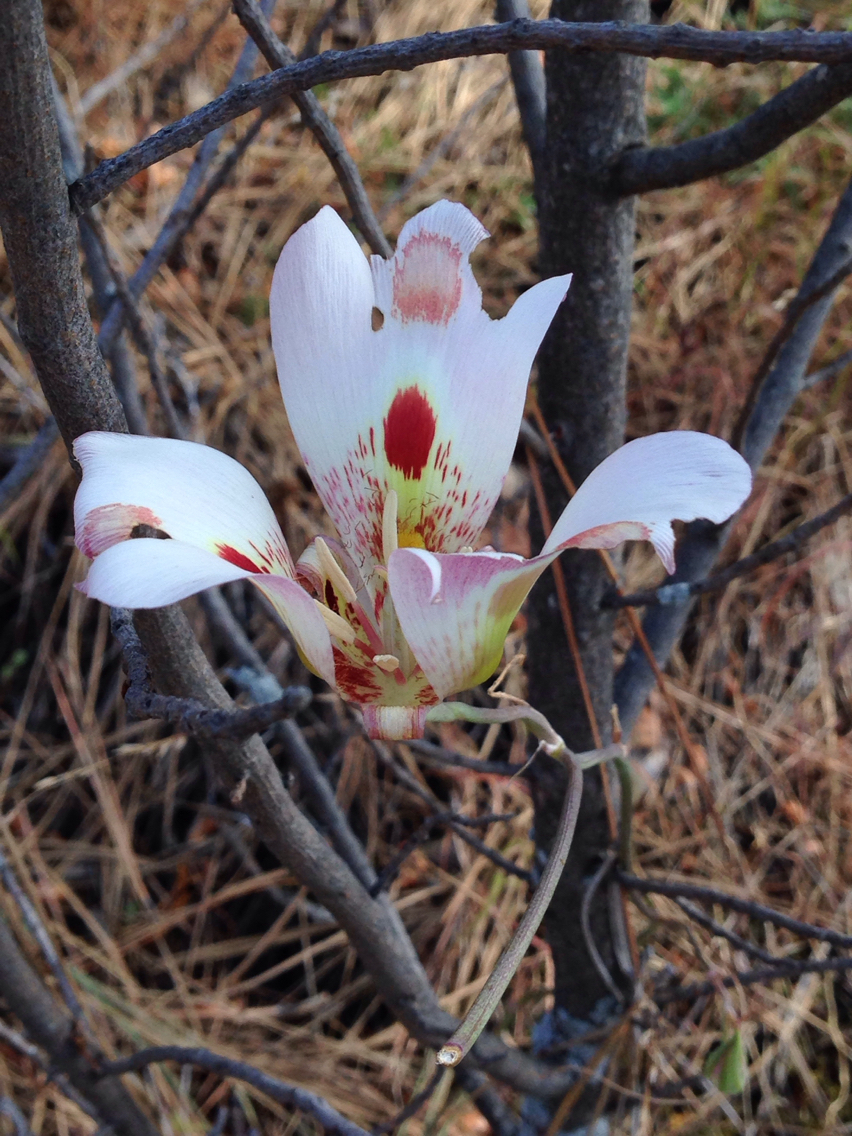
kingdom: Plantae
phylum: Tracheophyta
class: Liliopsida
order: Liliales
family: Liliaceae
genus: Calochortus
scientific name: Calochortus venustus
